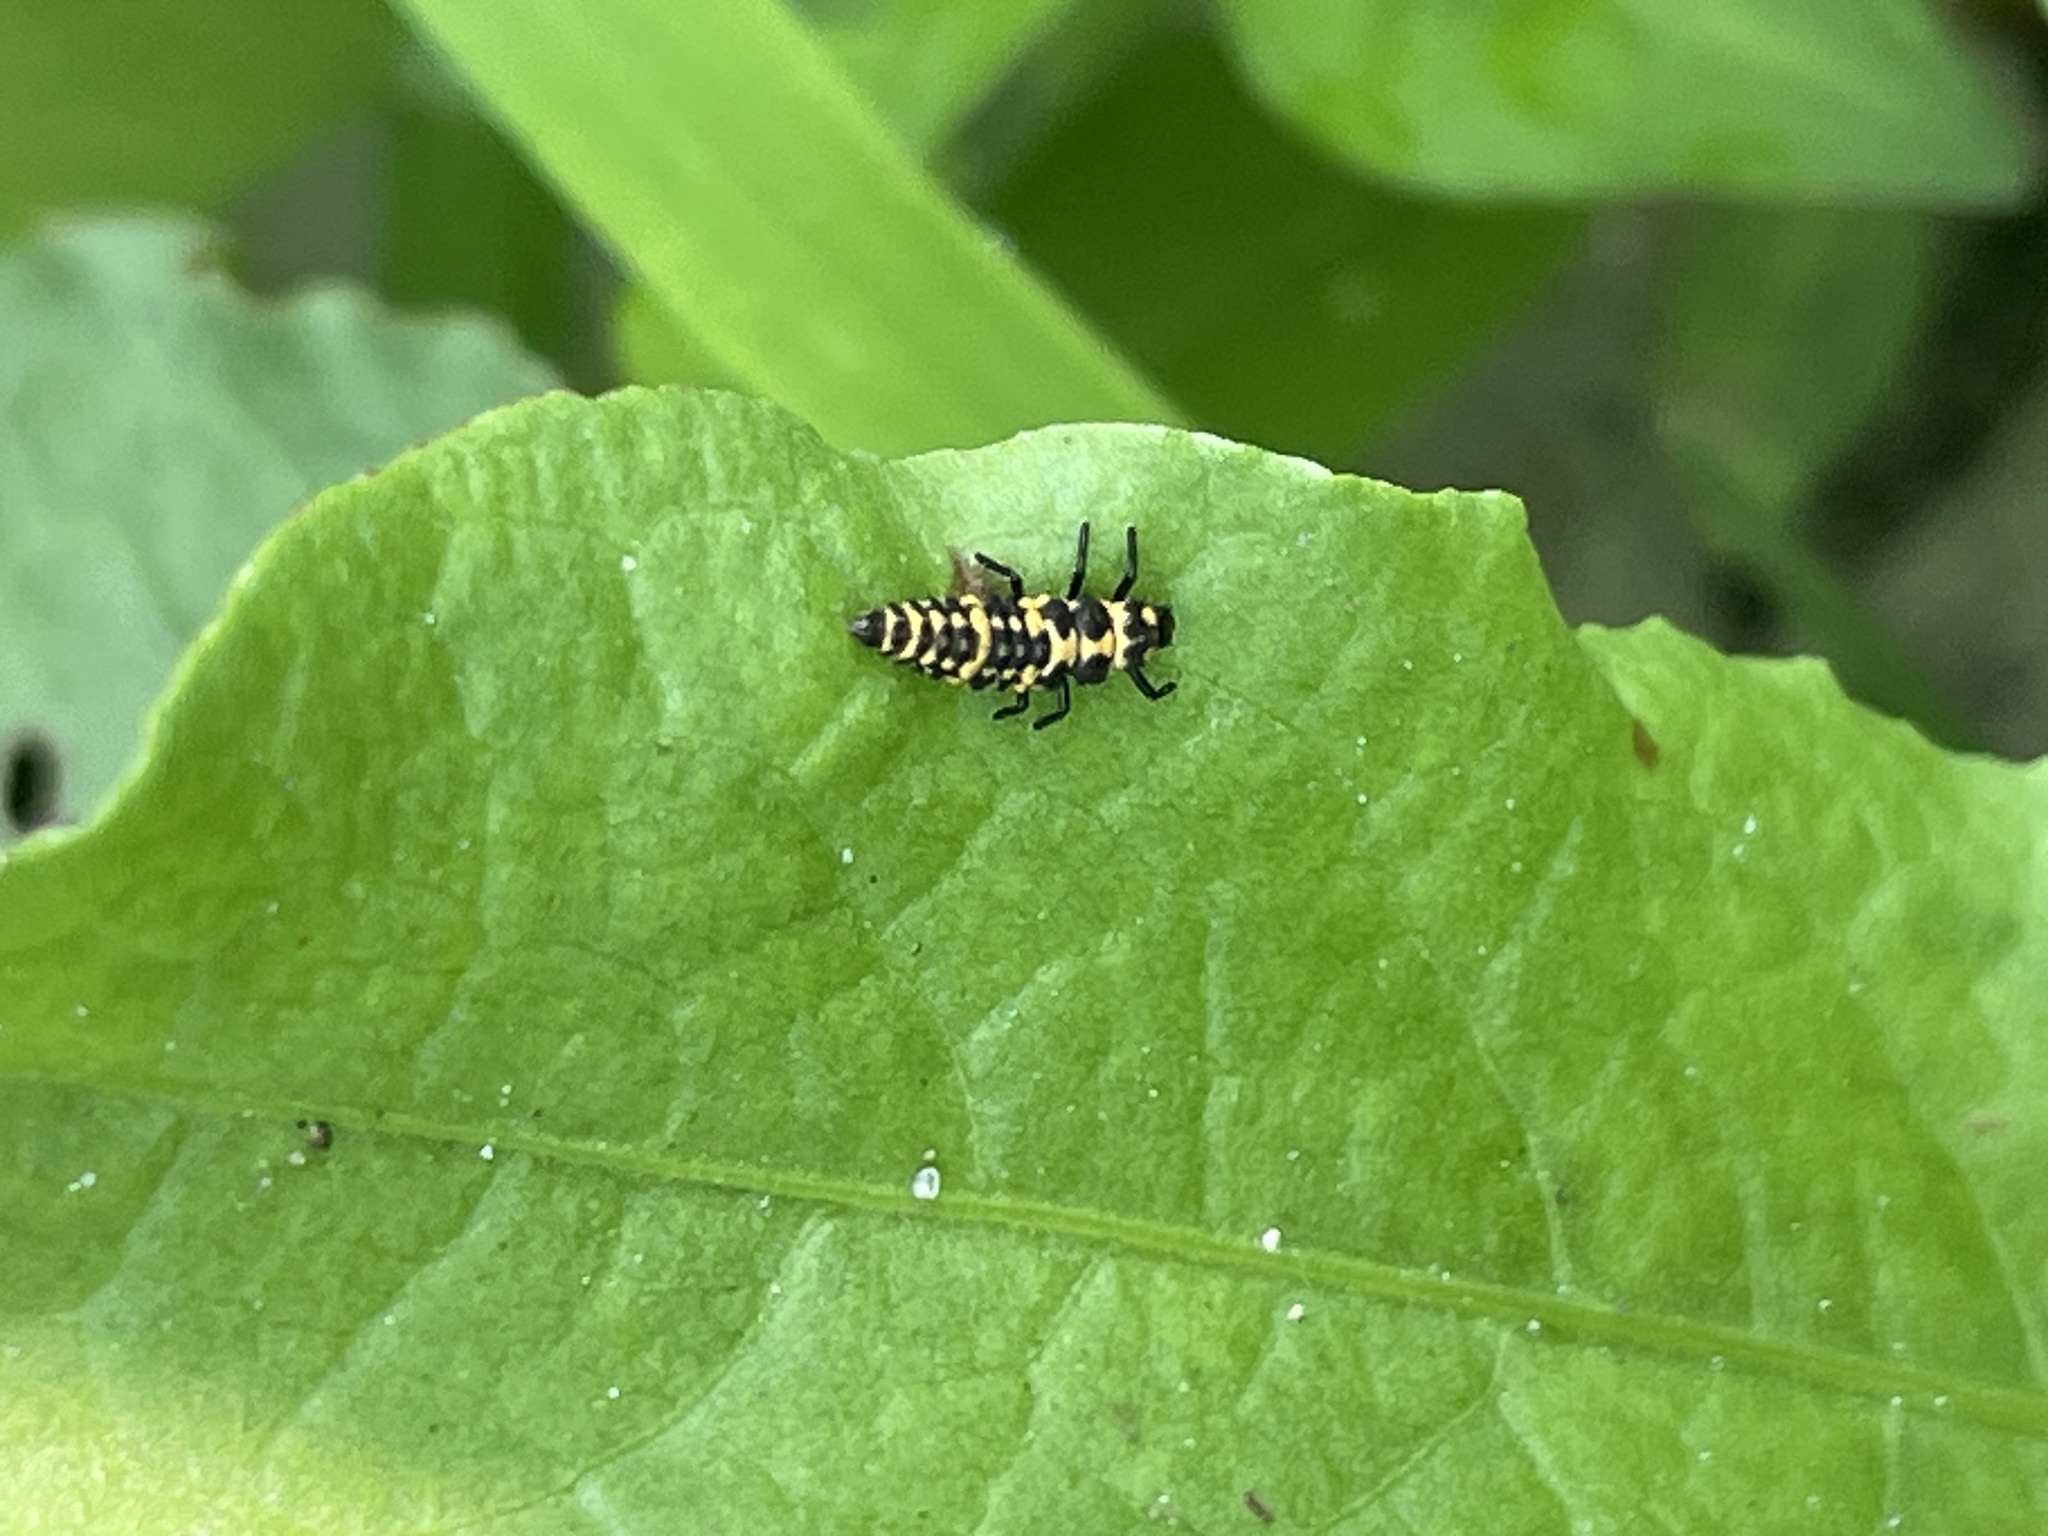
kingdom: Animalia
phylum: Arthropoda
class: Insecta
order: Coleoptera
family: Coccinellidae
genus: Coleomegilla
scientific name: Coleomegilla maculata
